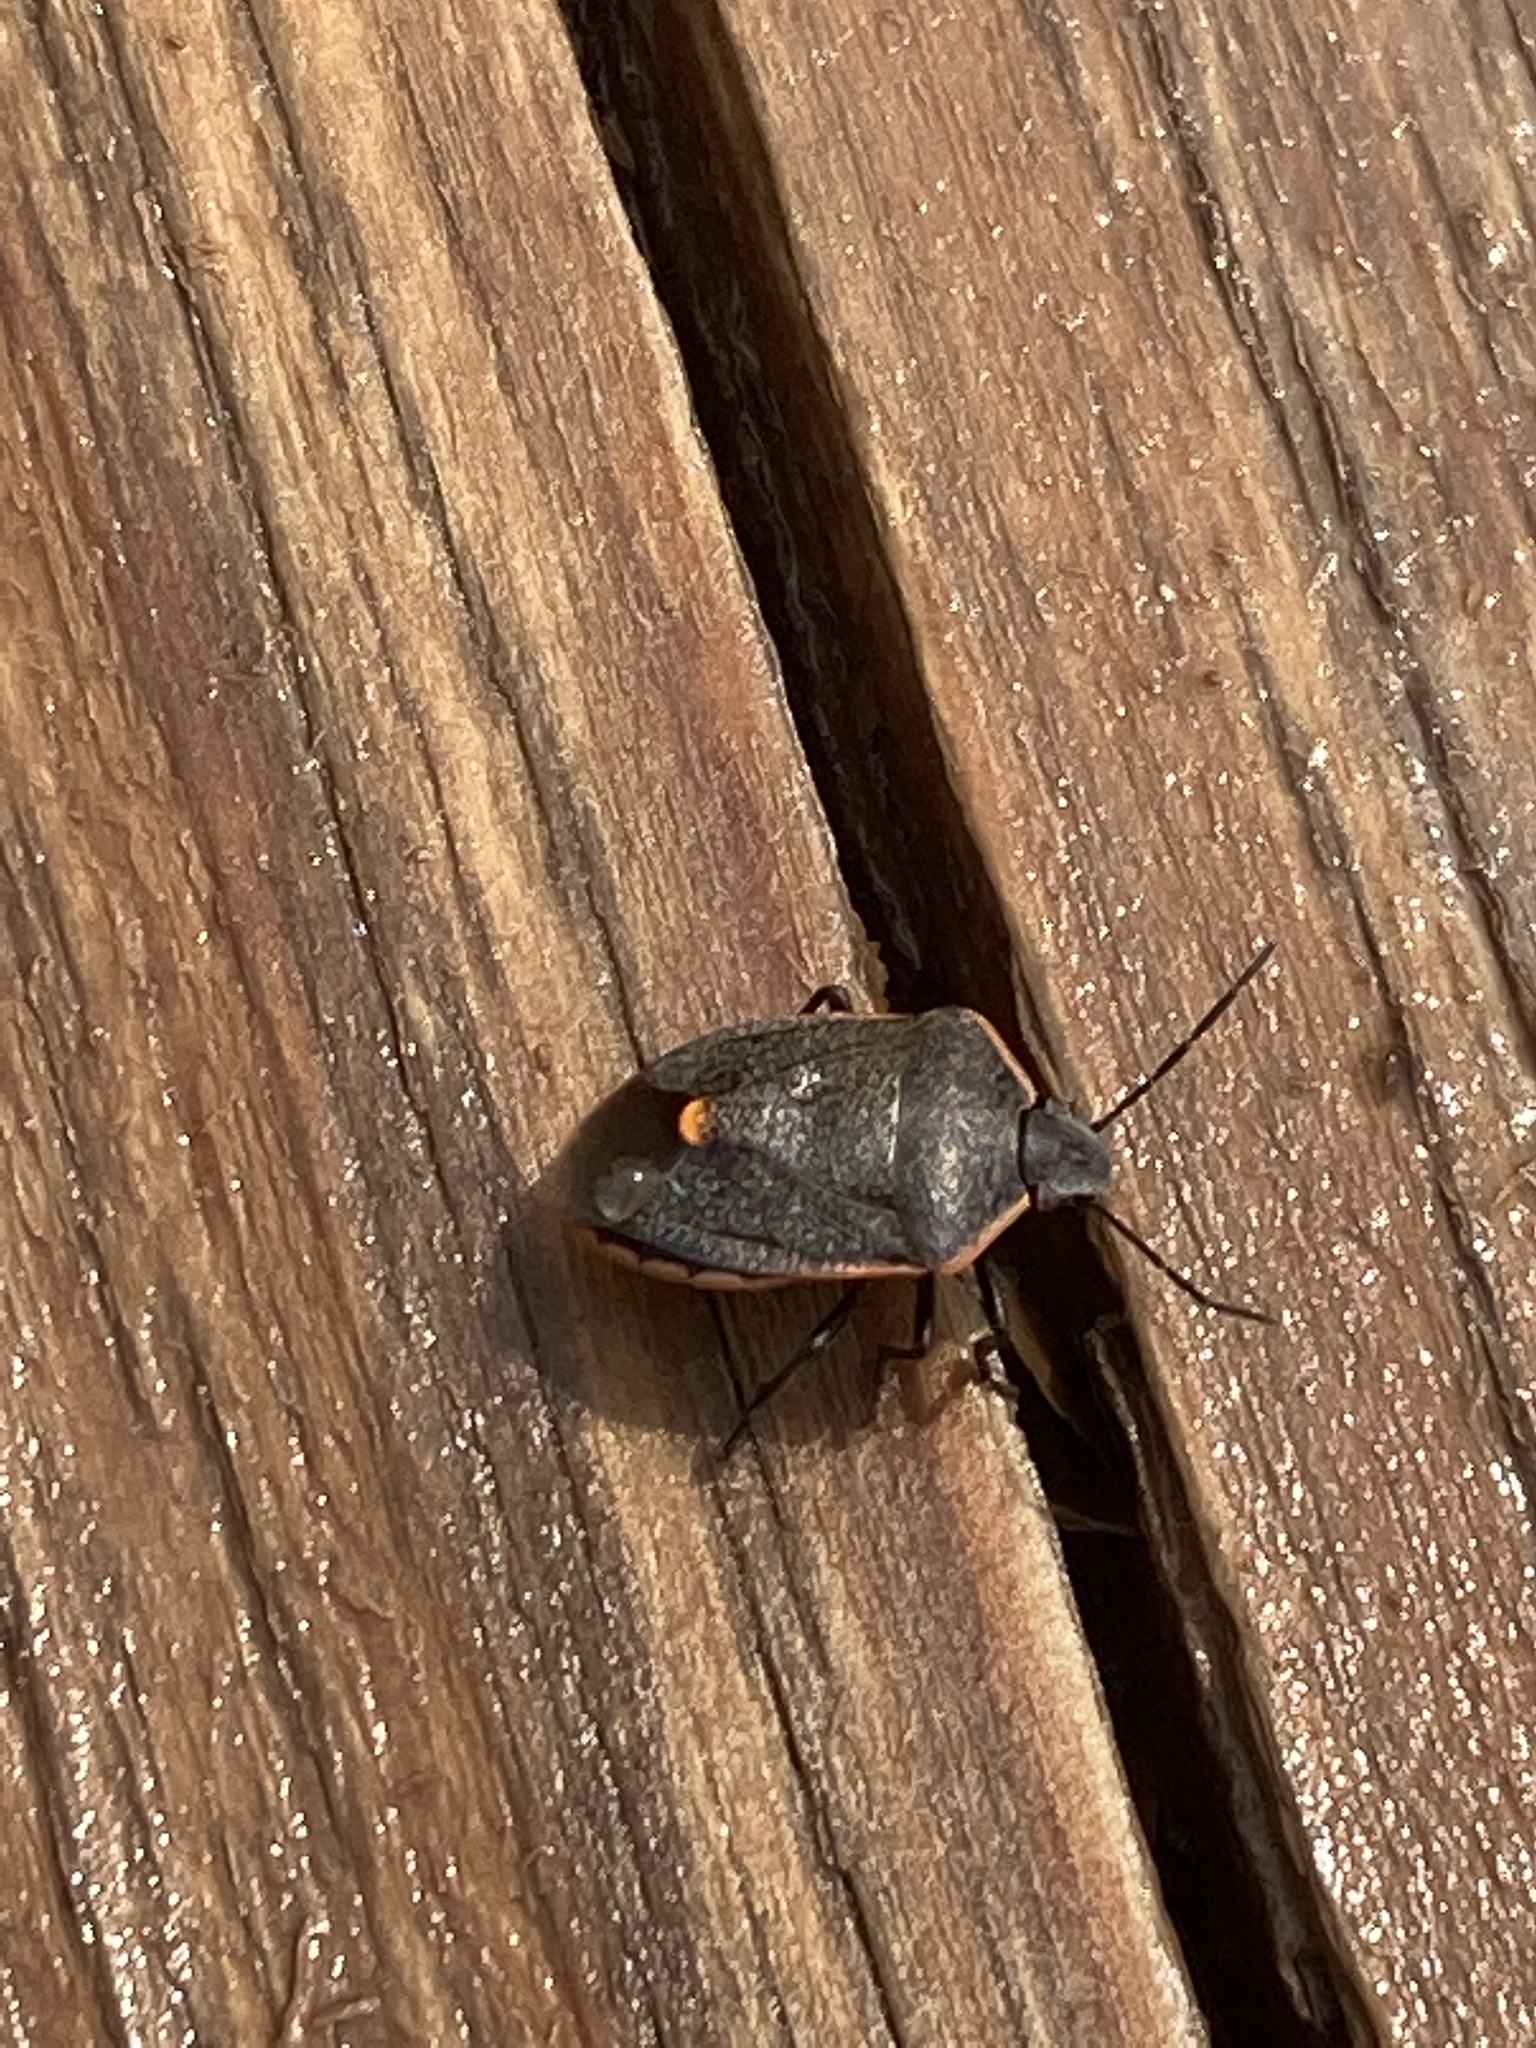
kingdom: Animalia
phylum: Arthropoda
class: Insecta
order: Hemiptera
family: Pentatomidae
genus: Chlorochroa
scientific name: Chlorochroa ligata
